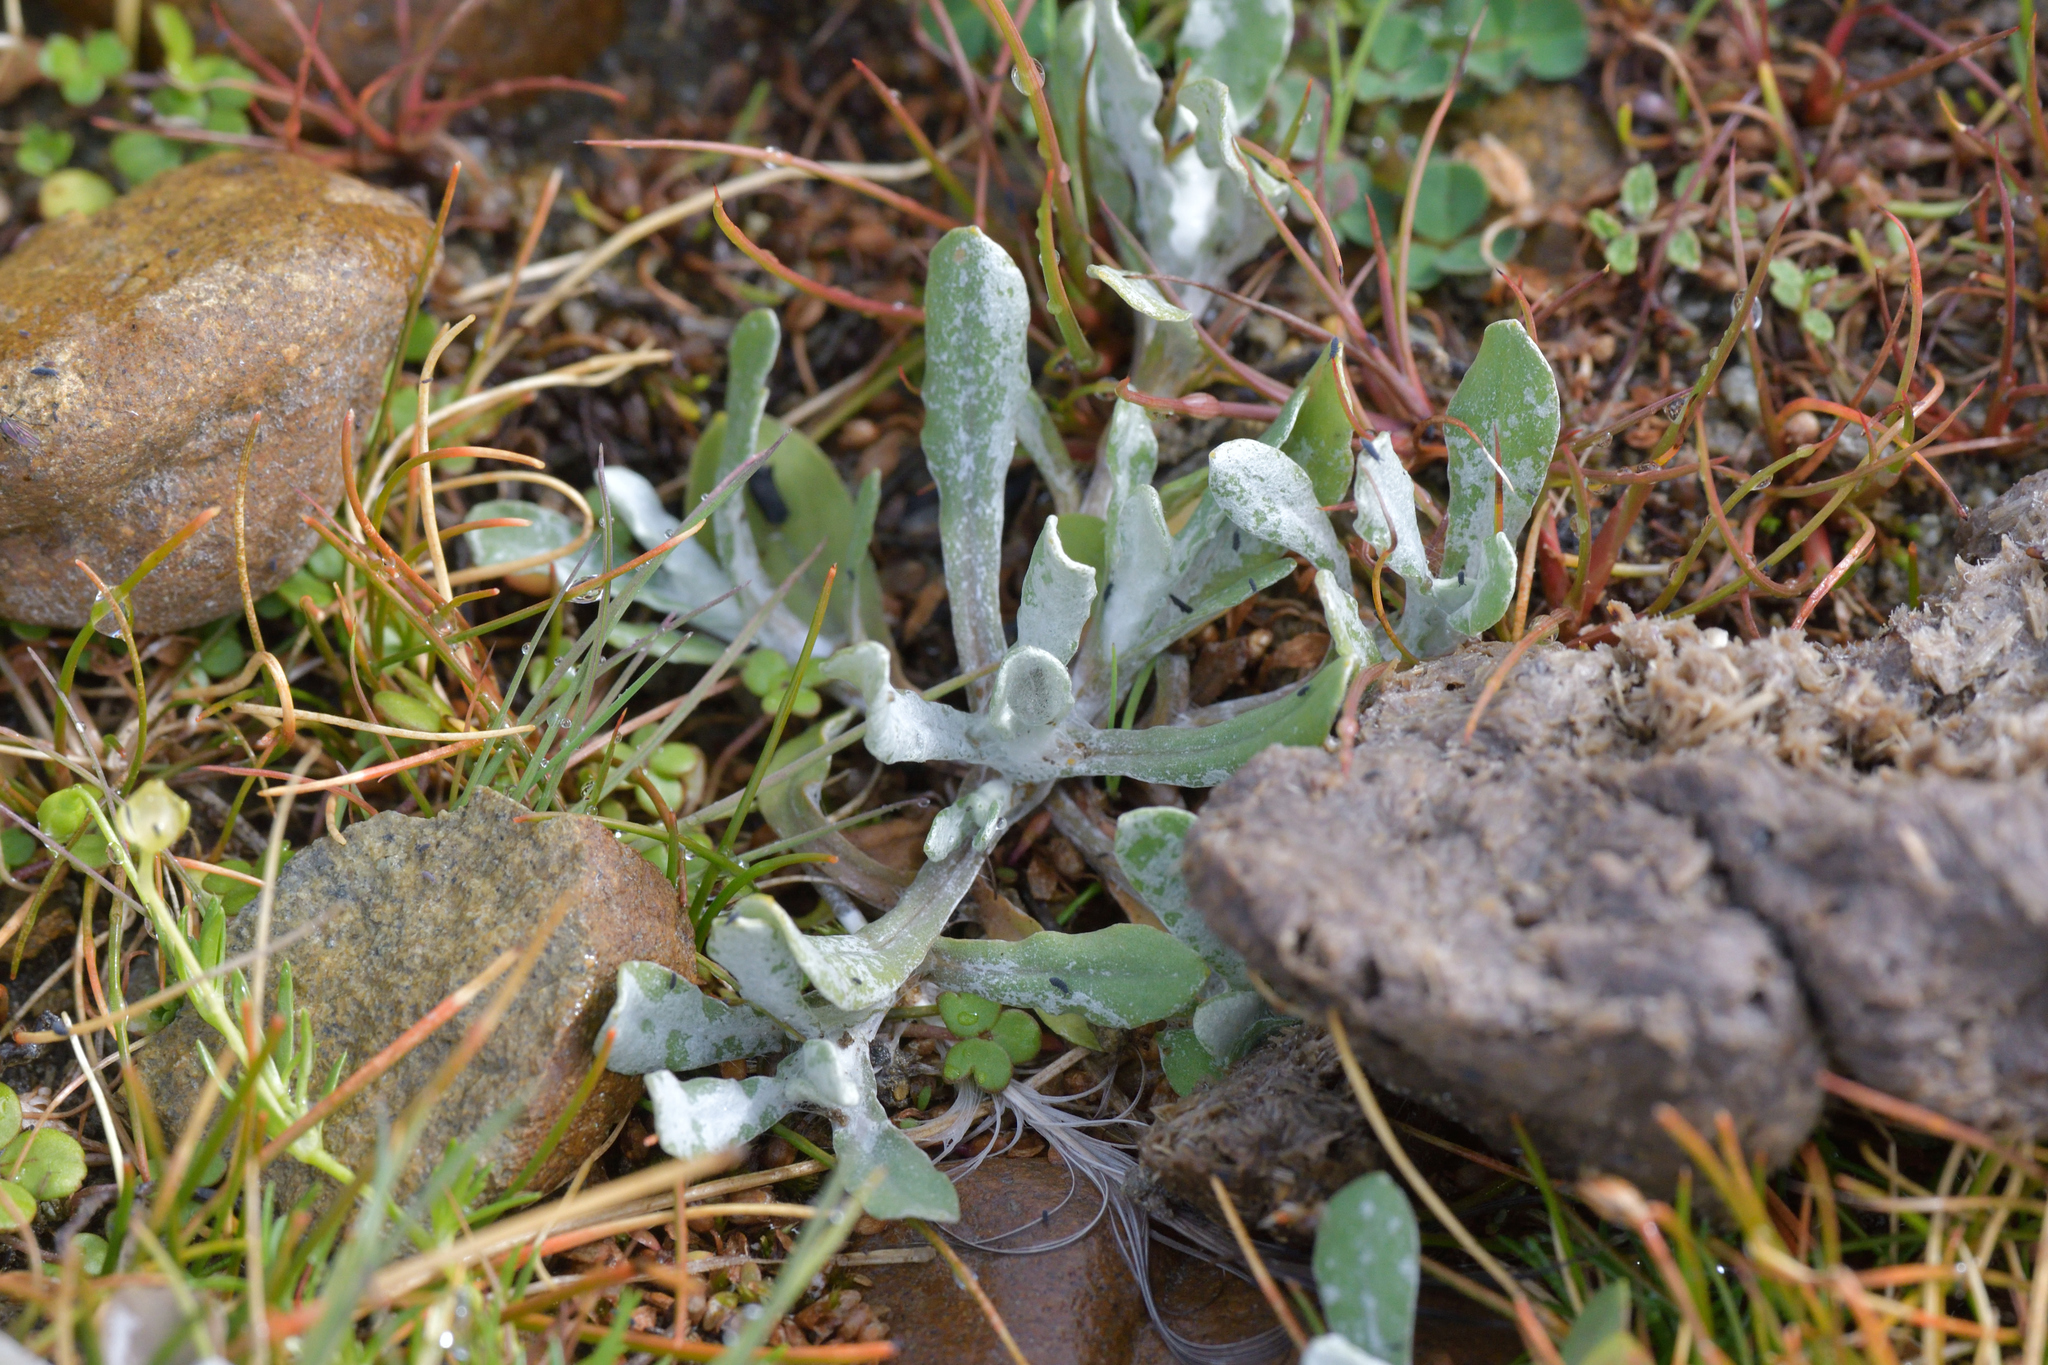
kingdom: Plantae
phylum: Tracheophyta
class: Magnoliopsida
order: Asterales
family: Asteraceae
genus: Helichrysum
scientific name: Helichrysum luteoalbum
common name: Daisy
